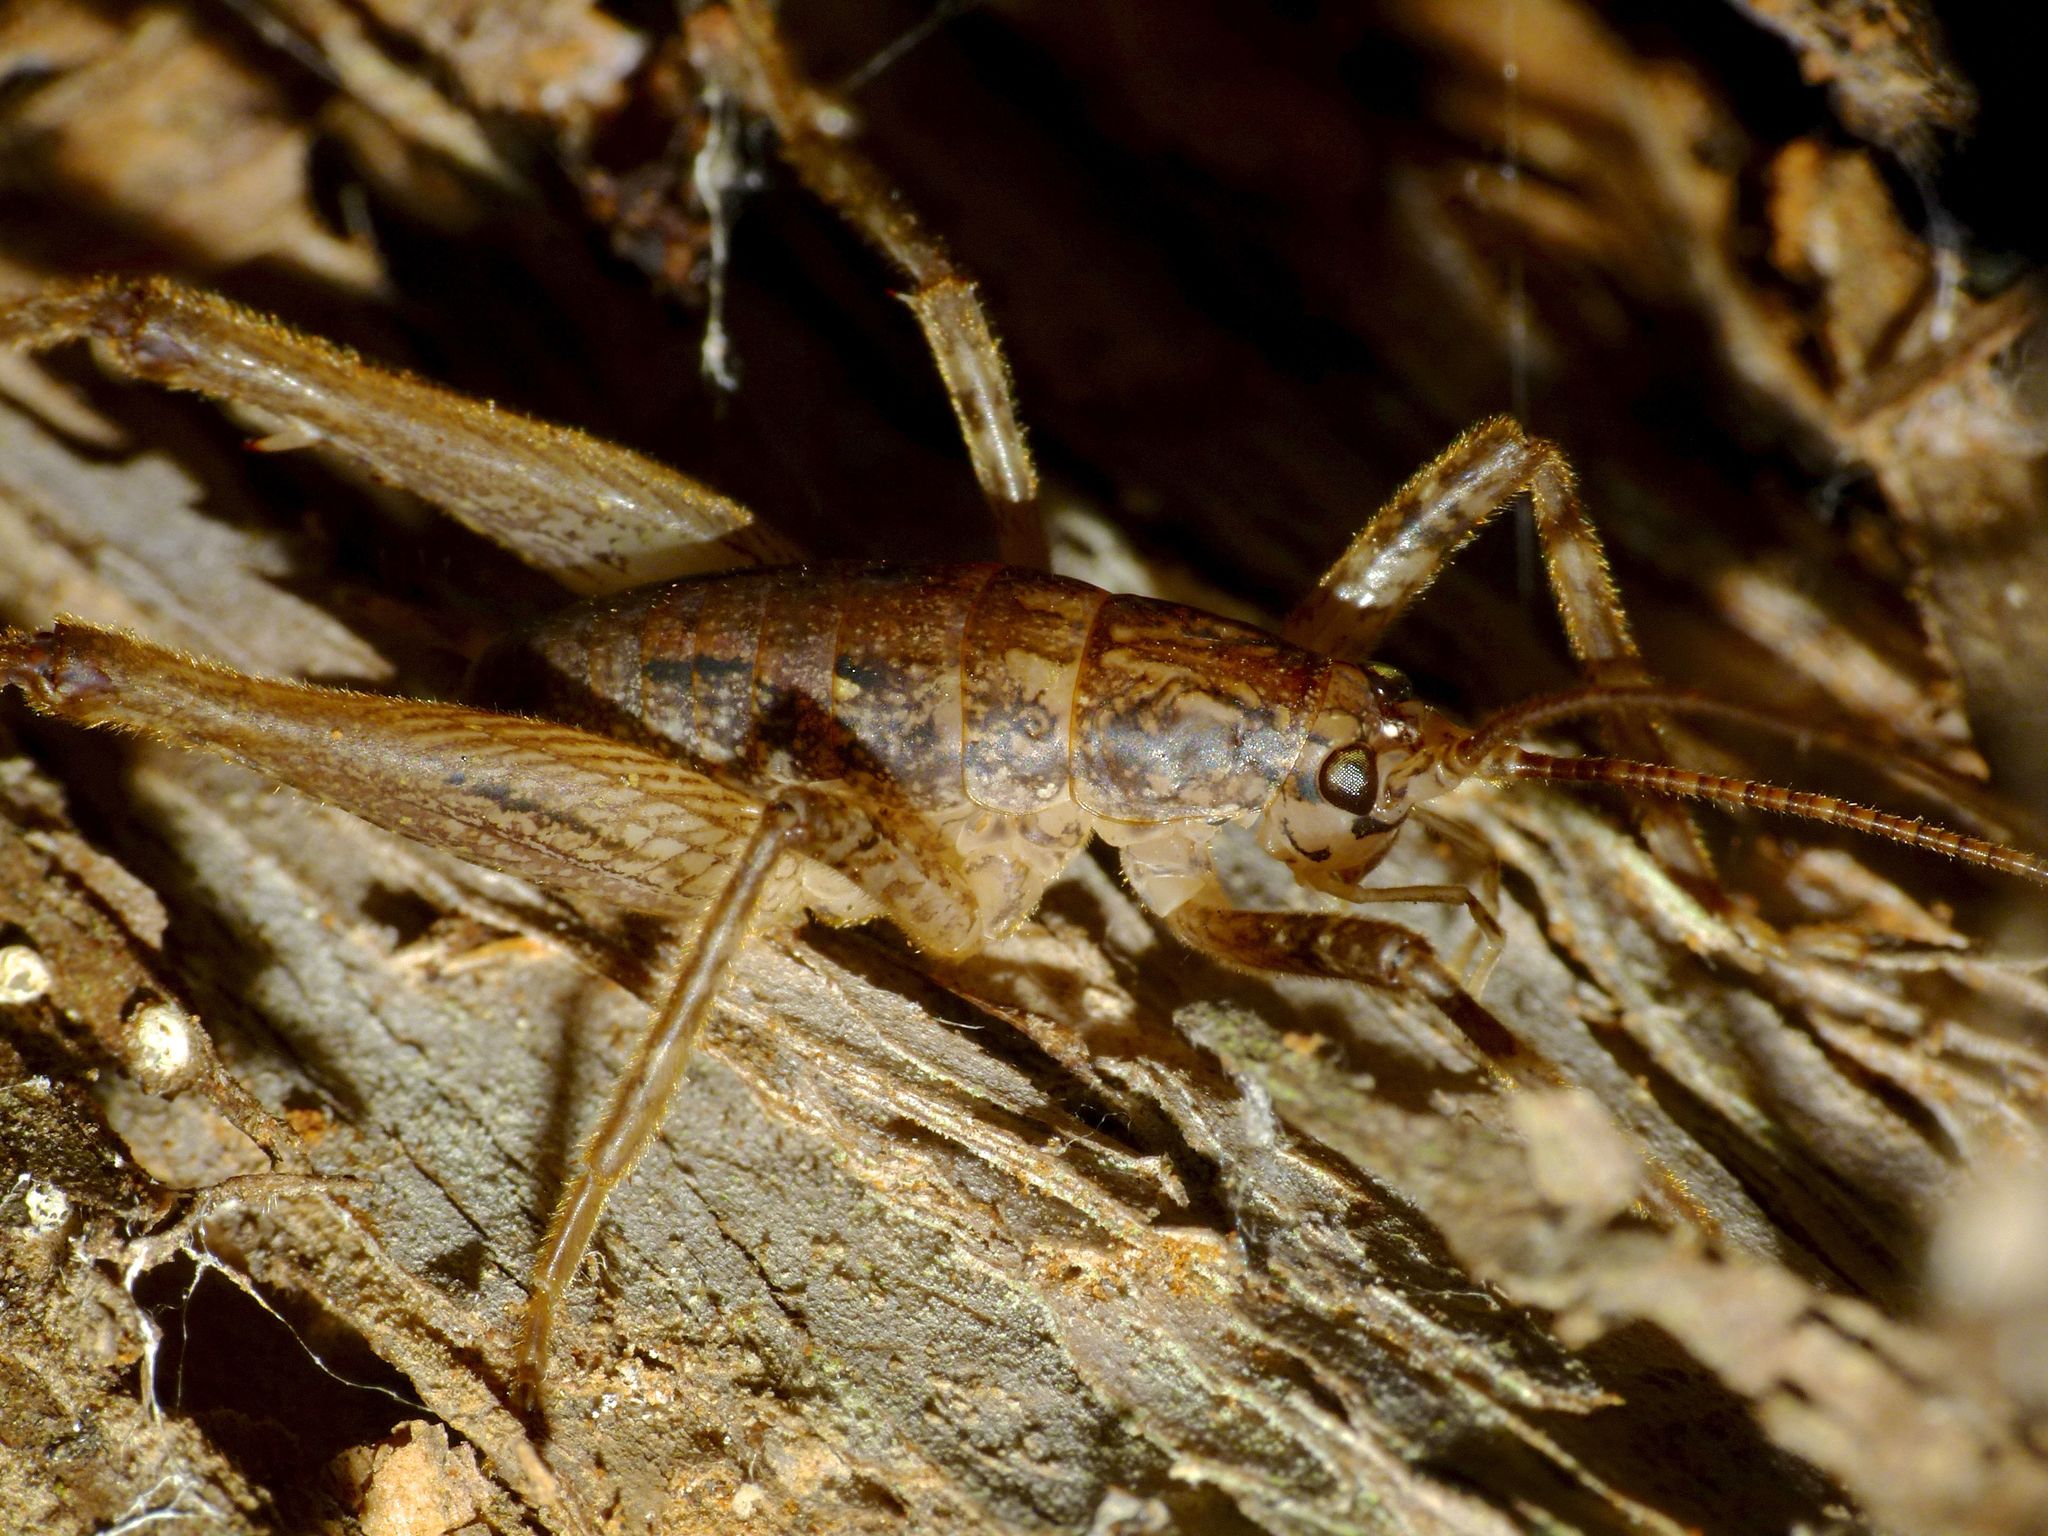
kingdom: Animalia
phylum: Arthropoda
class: Insecta
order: Orthoptera
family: Rhaphidophoridae
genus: Isoplectron
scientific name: Isoplectron armatum
